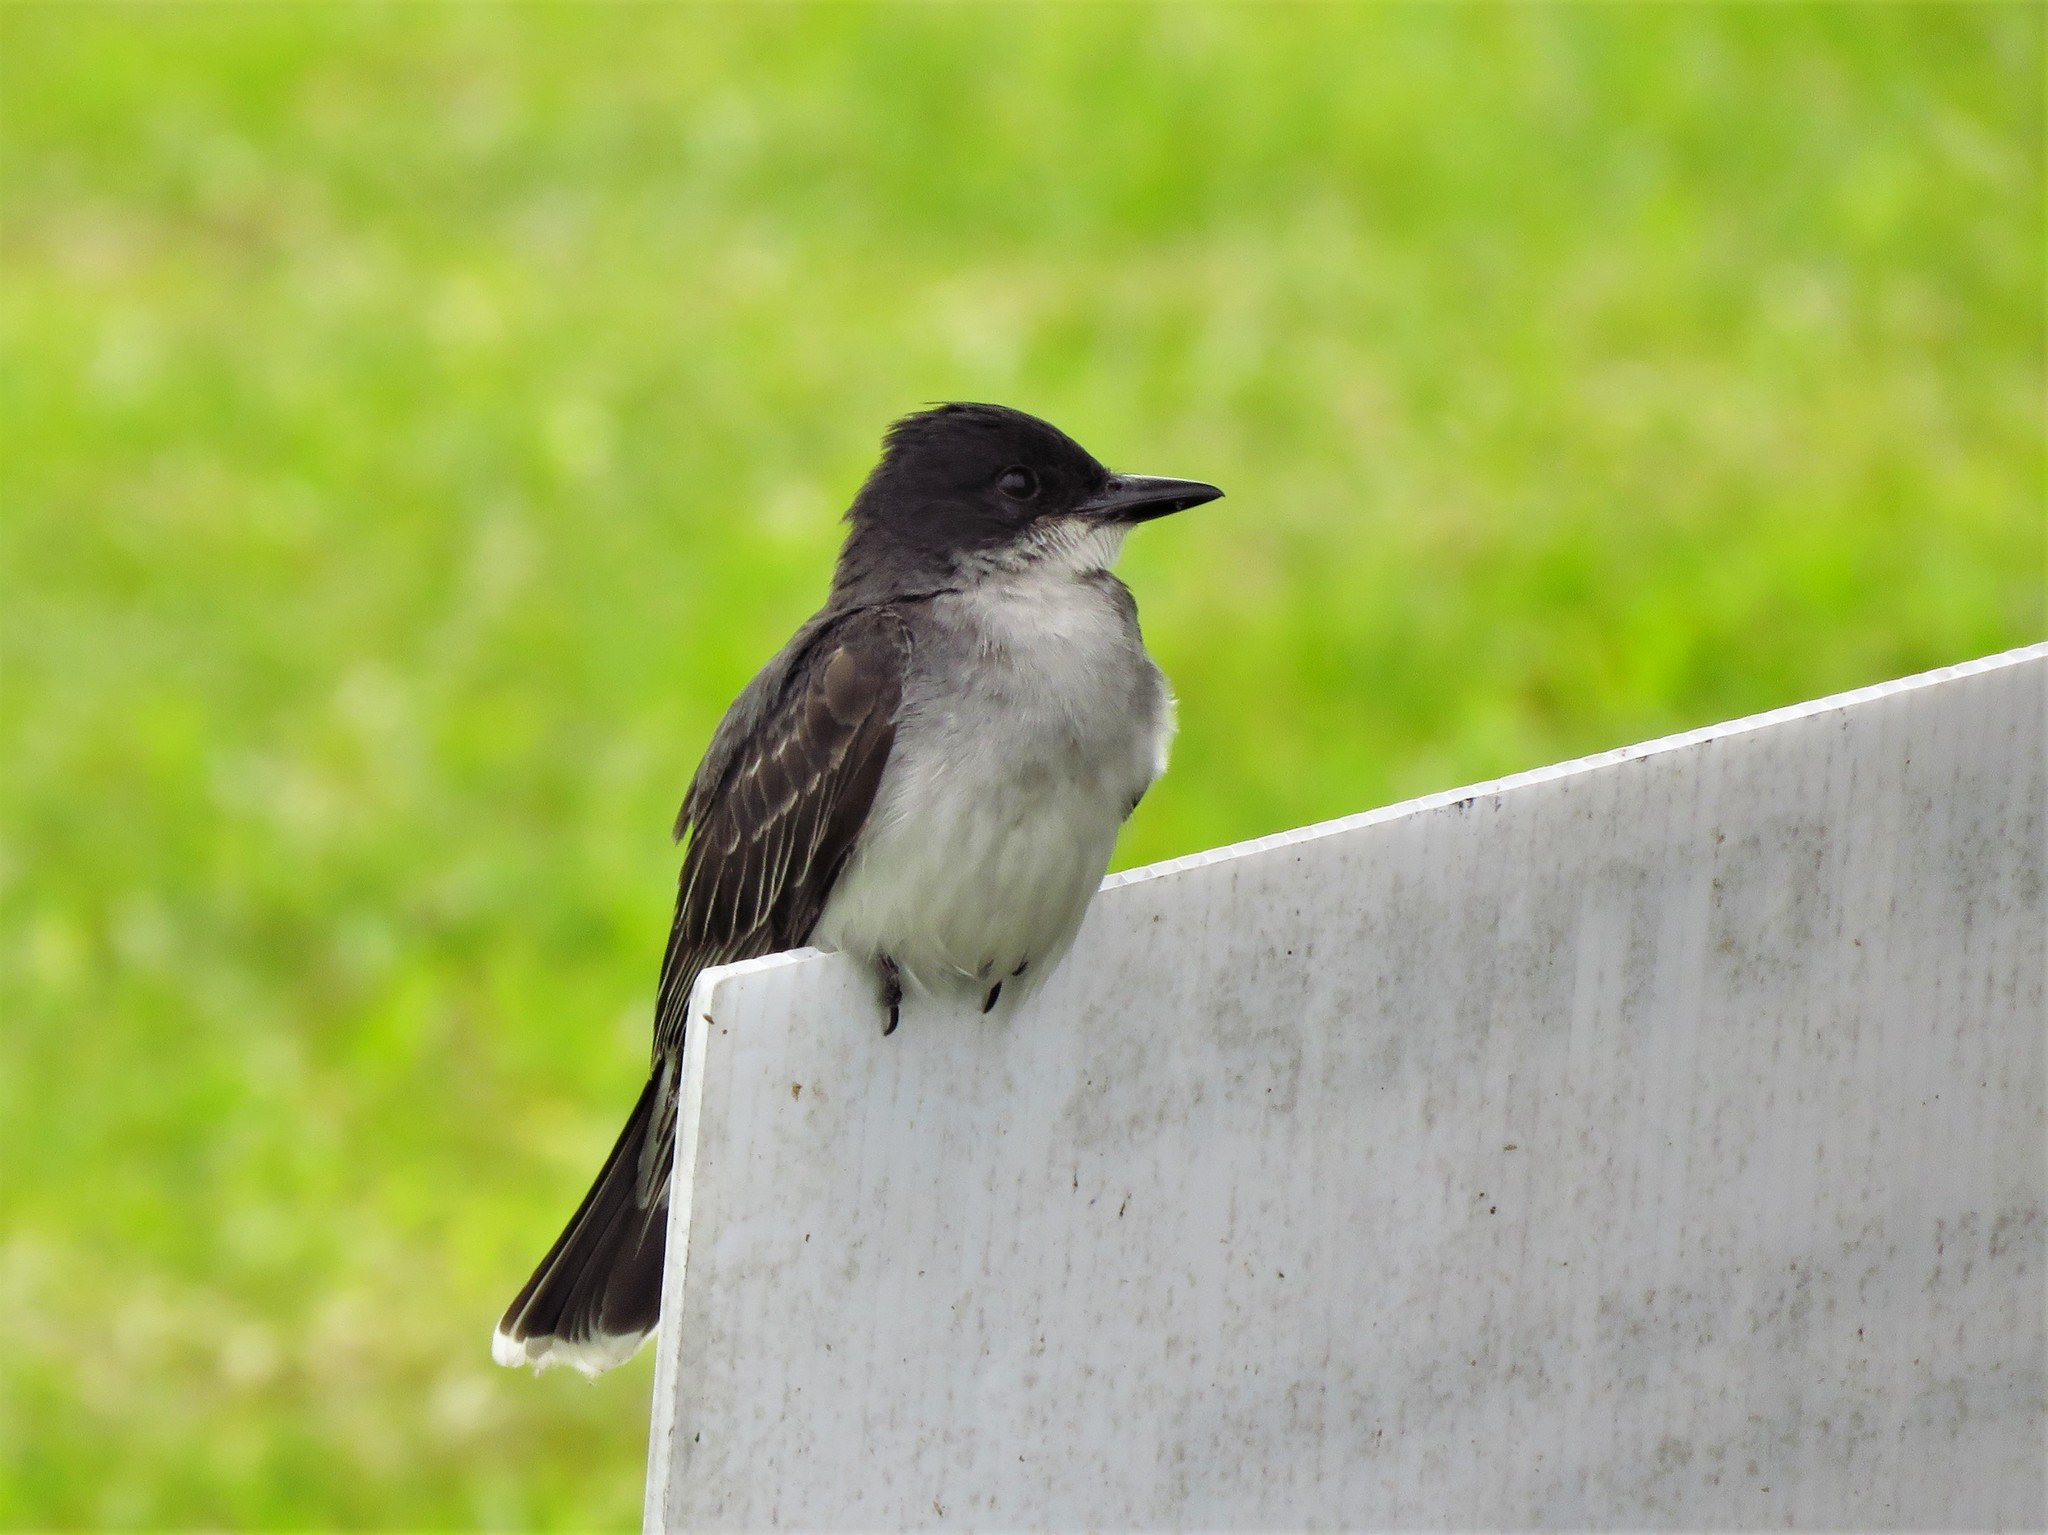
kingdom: Animalia
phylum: Chordata
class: Aves
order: Passeriformes
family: Tyrannidae
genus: Tyrannus
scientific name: Tyrannus tyrannus
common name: Eastern kingbird
